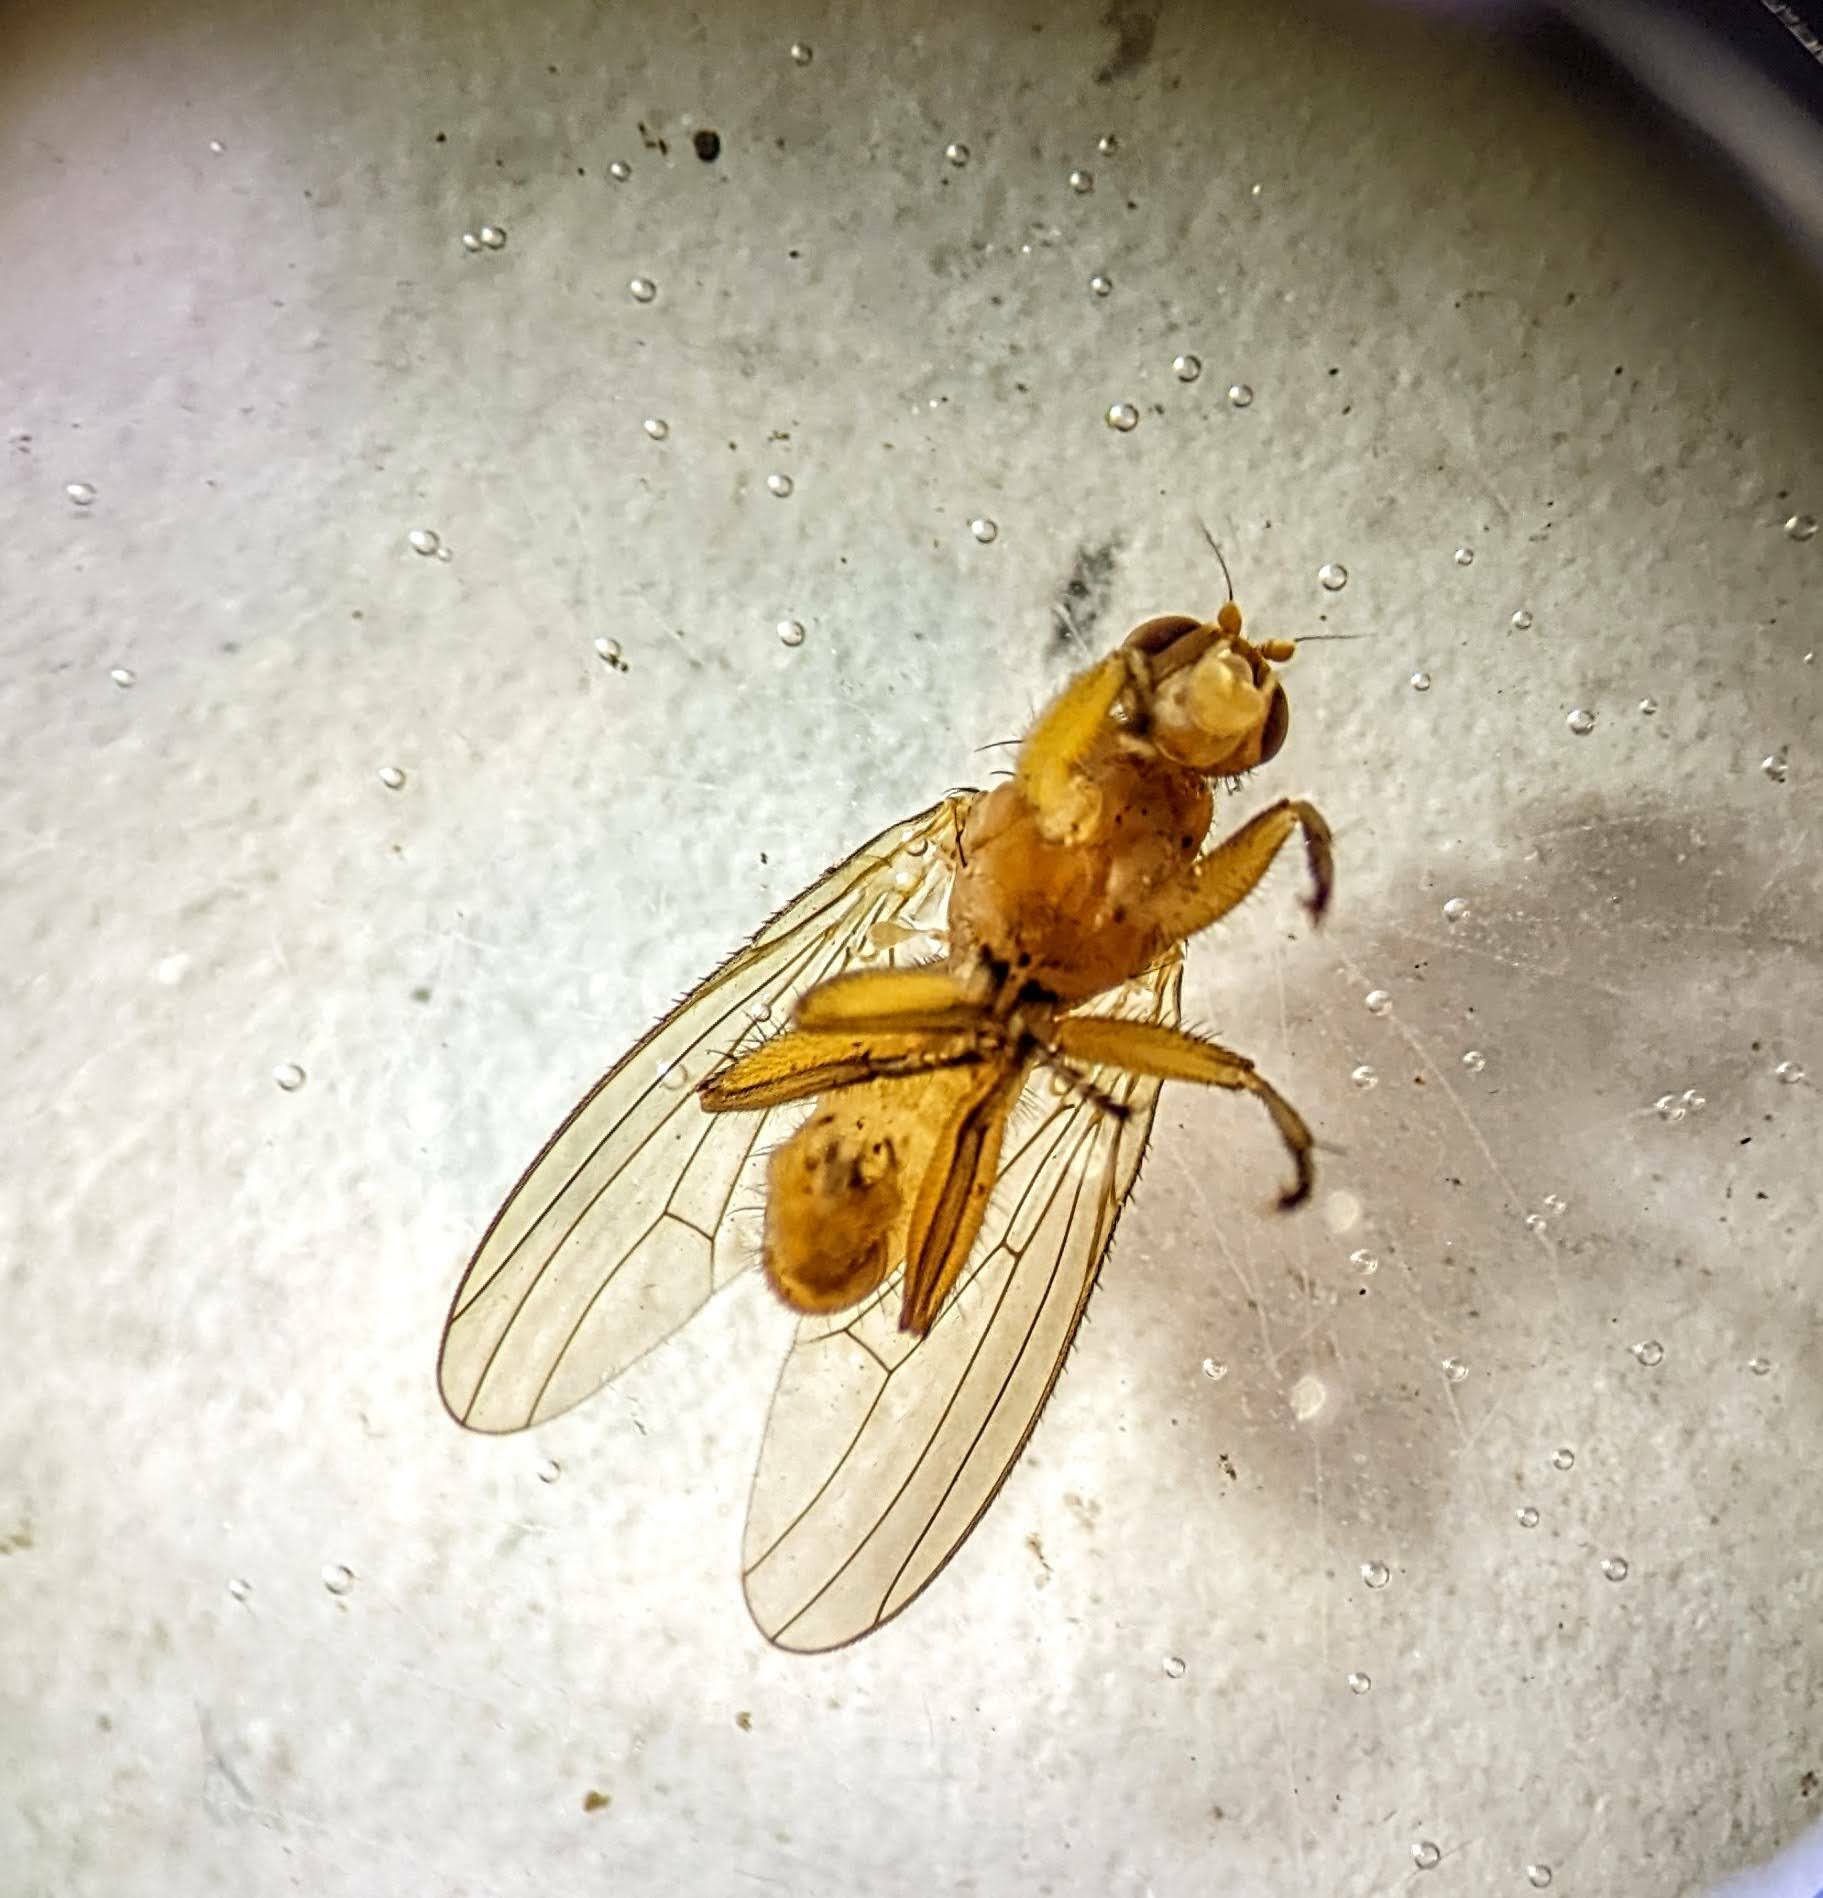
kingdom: Animalia
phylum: Arthropoda
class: Insecta
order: Diptera
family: Heleomyzidae
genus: Suillia
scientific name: Suillia convergens
